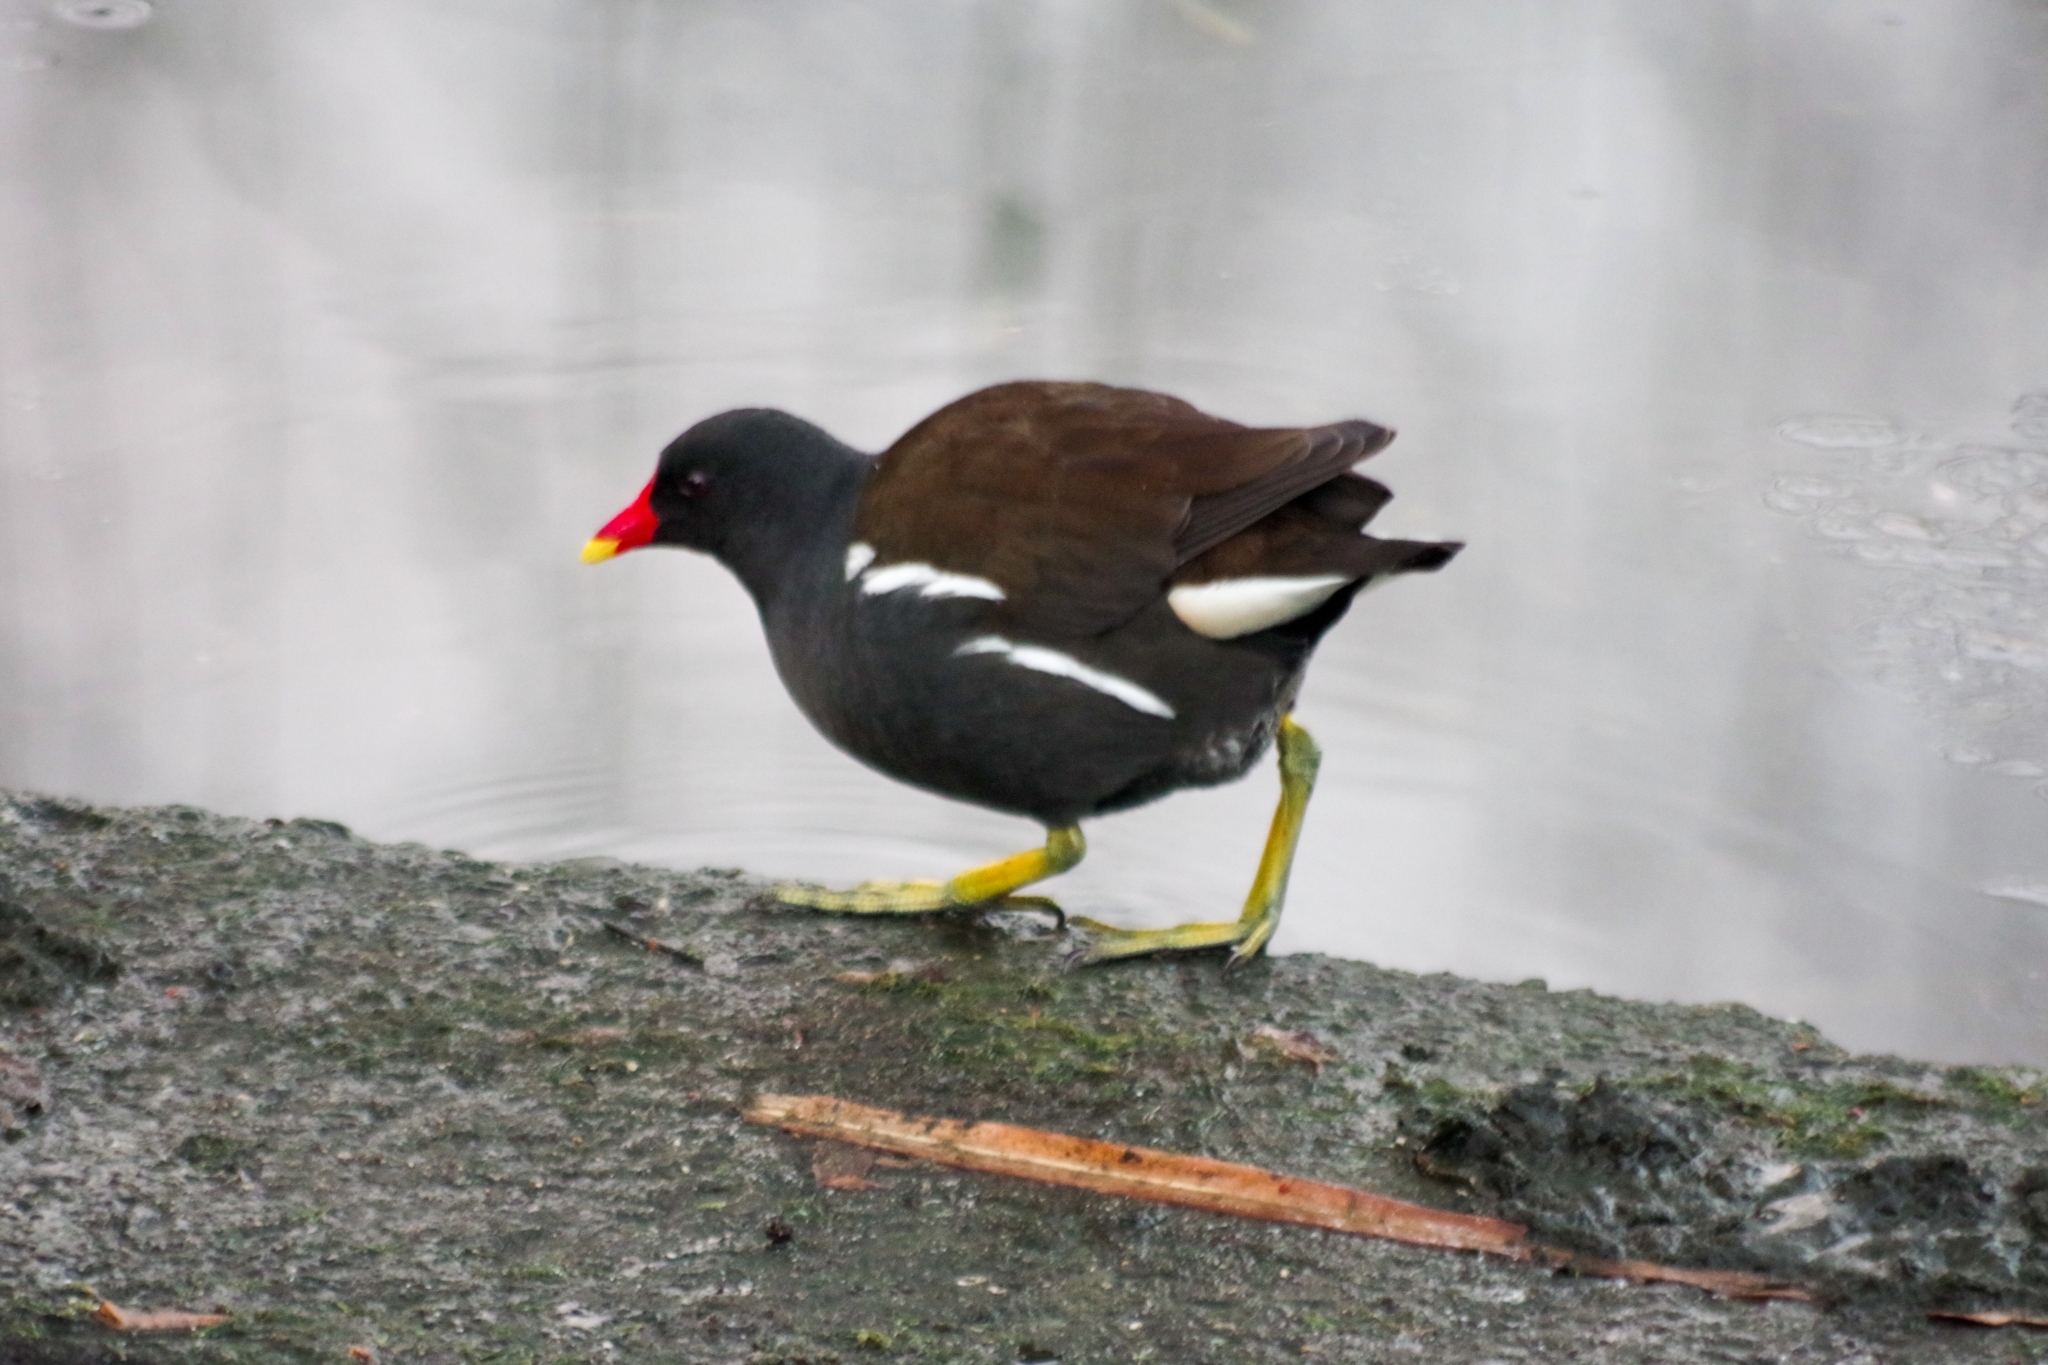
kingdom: Animalia
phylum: Chordata
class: Aves
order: Gruiformes
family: Rallidae
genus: Gallinula
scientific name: Gallinula chloropus
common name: Common moorhen
